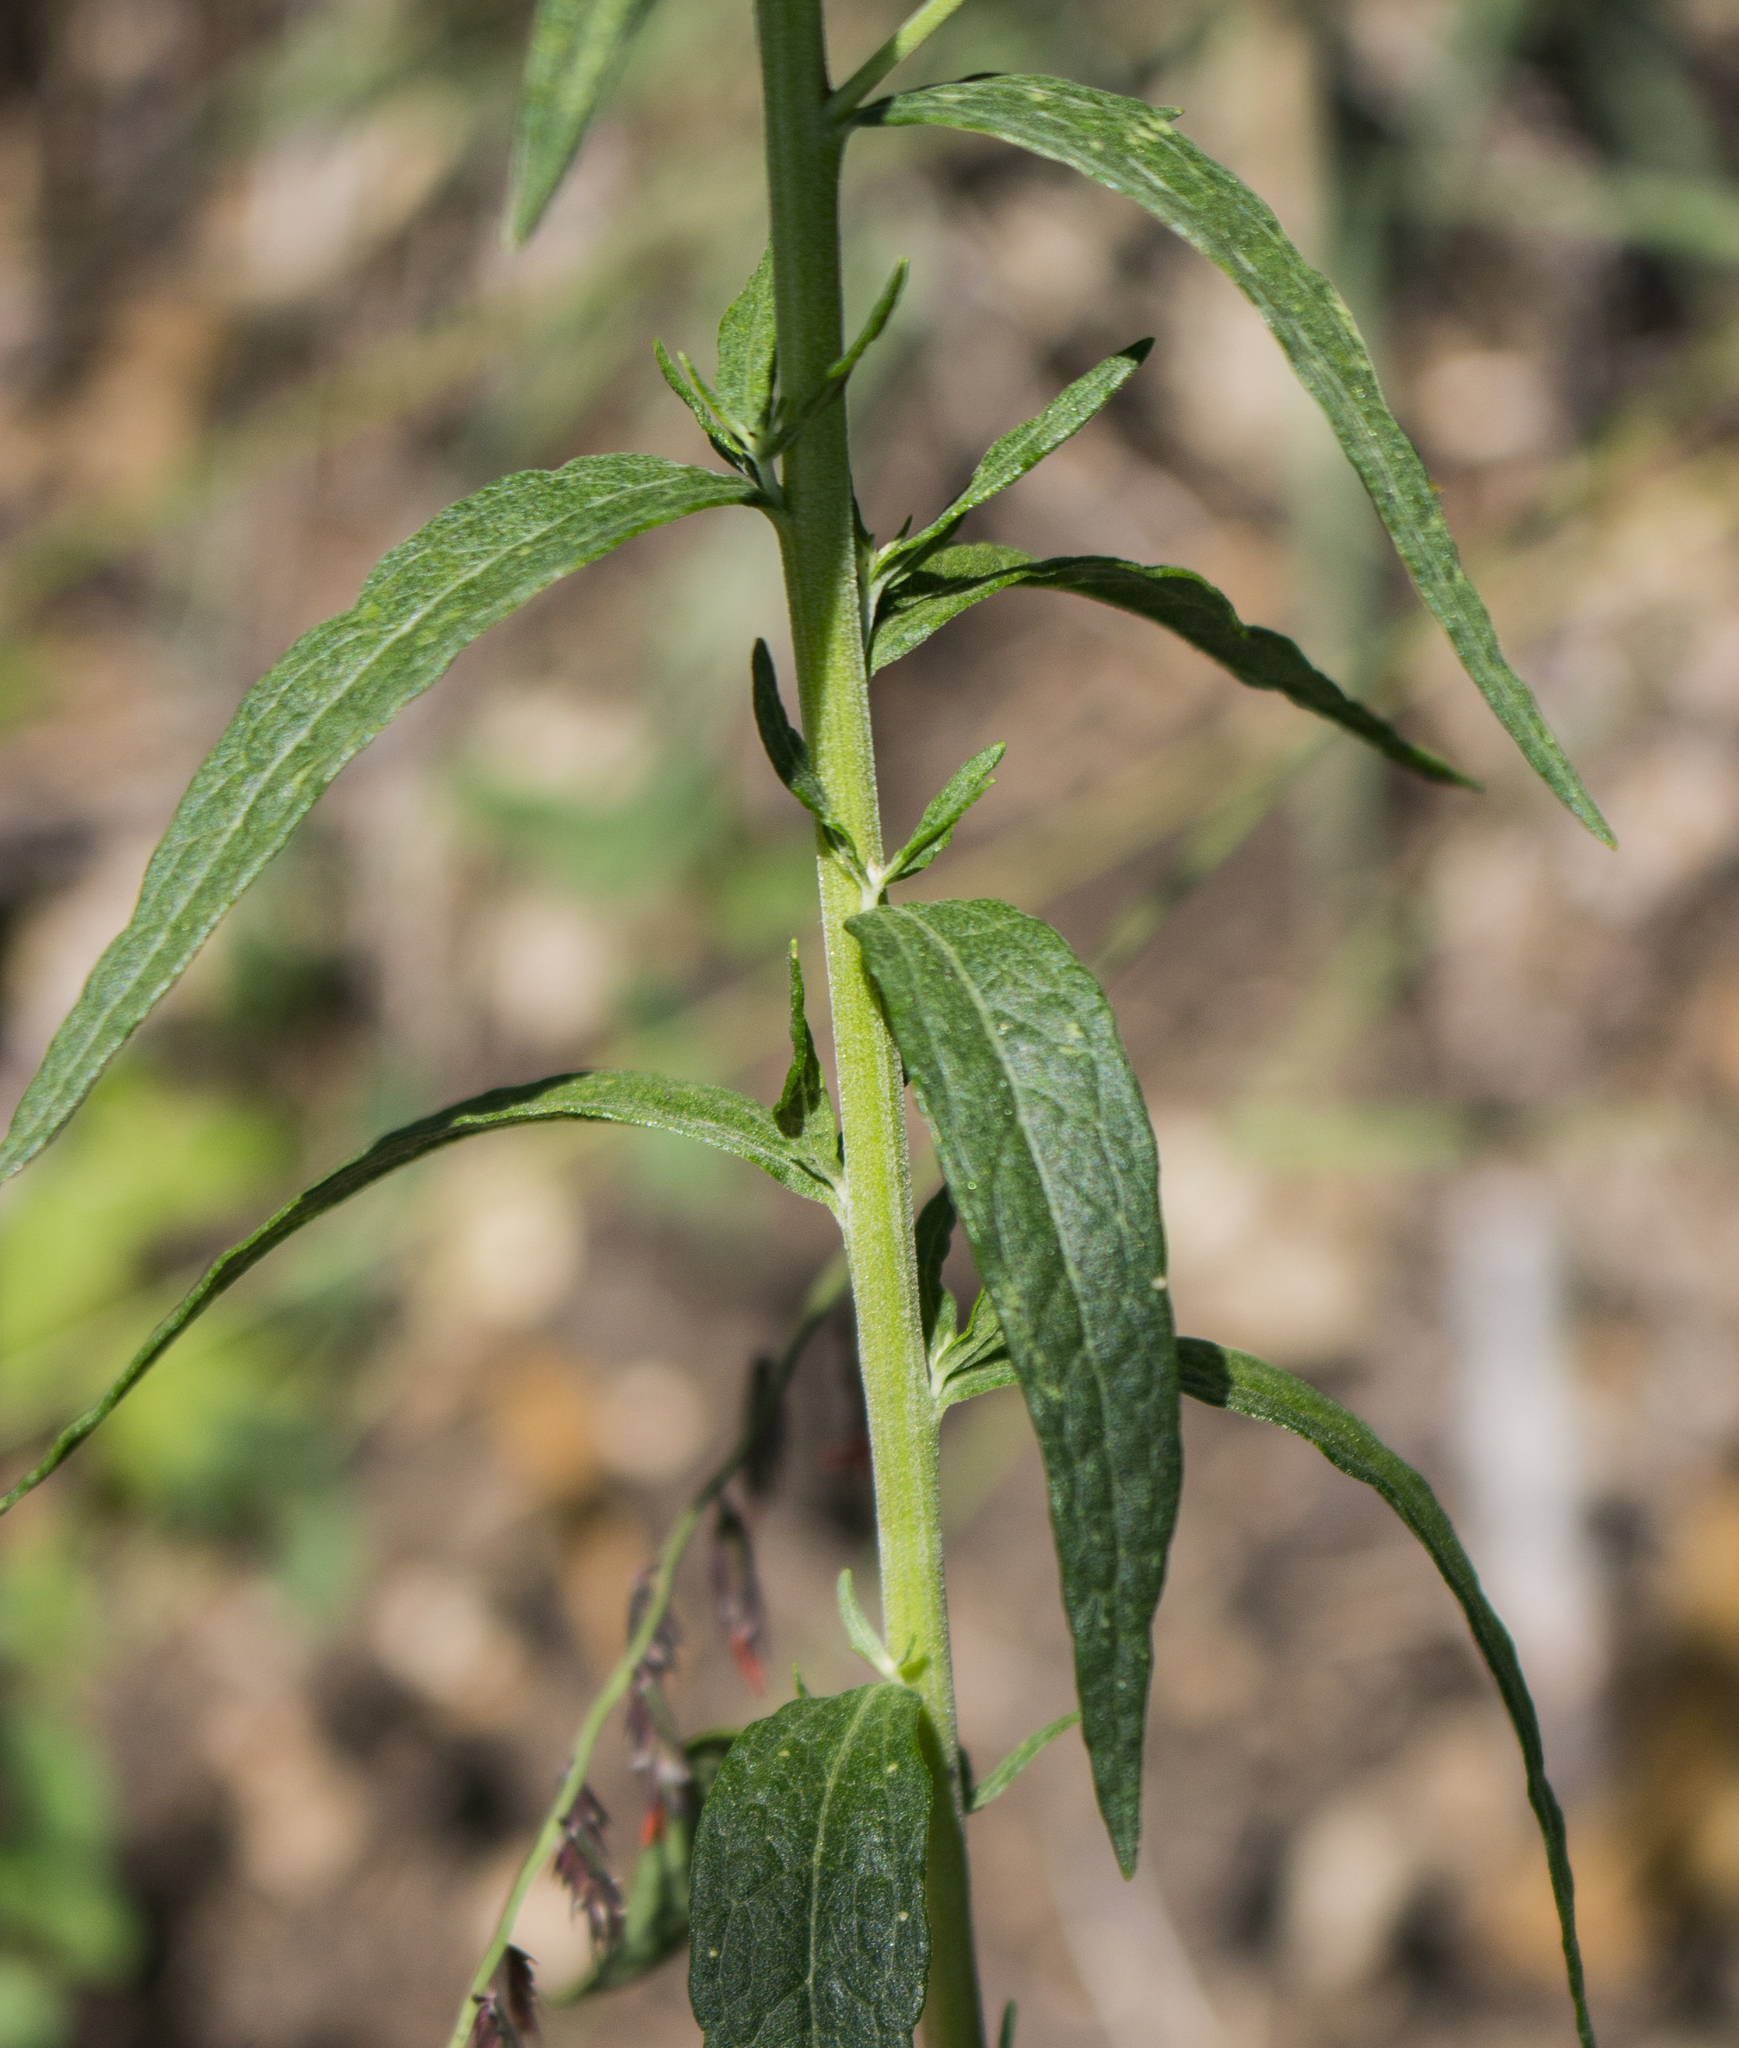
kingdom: Plantae
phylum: Tracheophyta
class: Magnoliopsida
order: Asterales
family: Asteraceae
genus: Brickellia
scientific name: Brickellia eupatorioides
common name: False boneset
